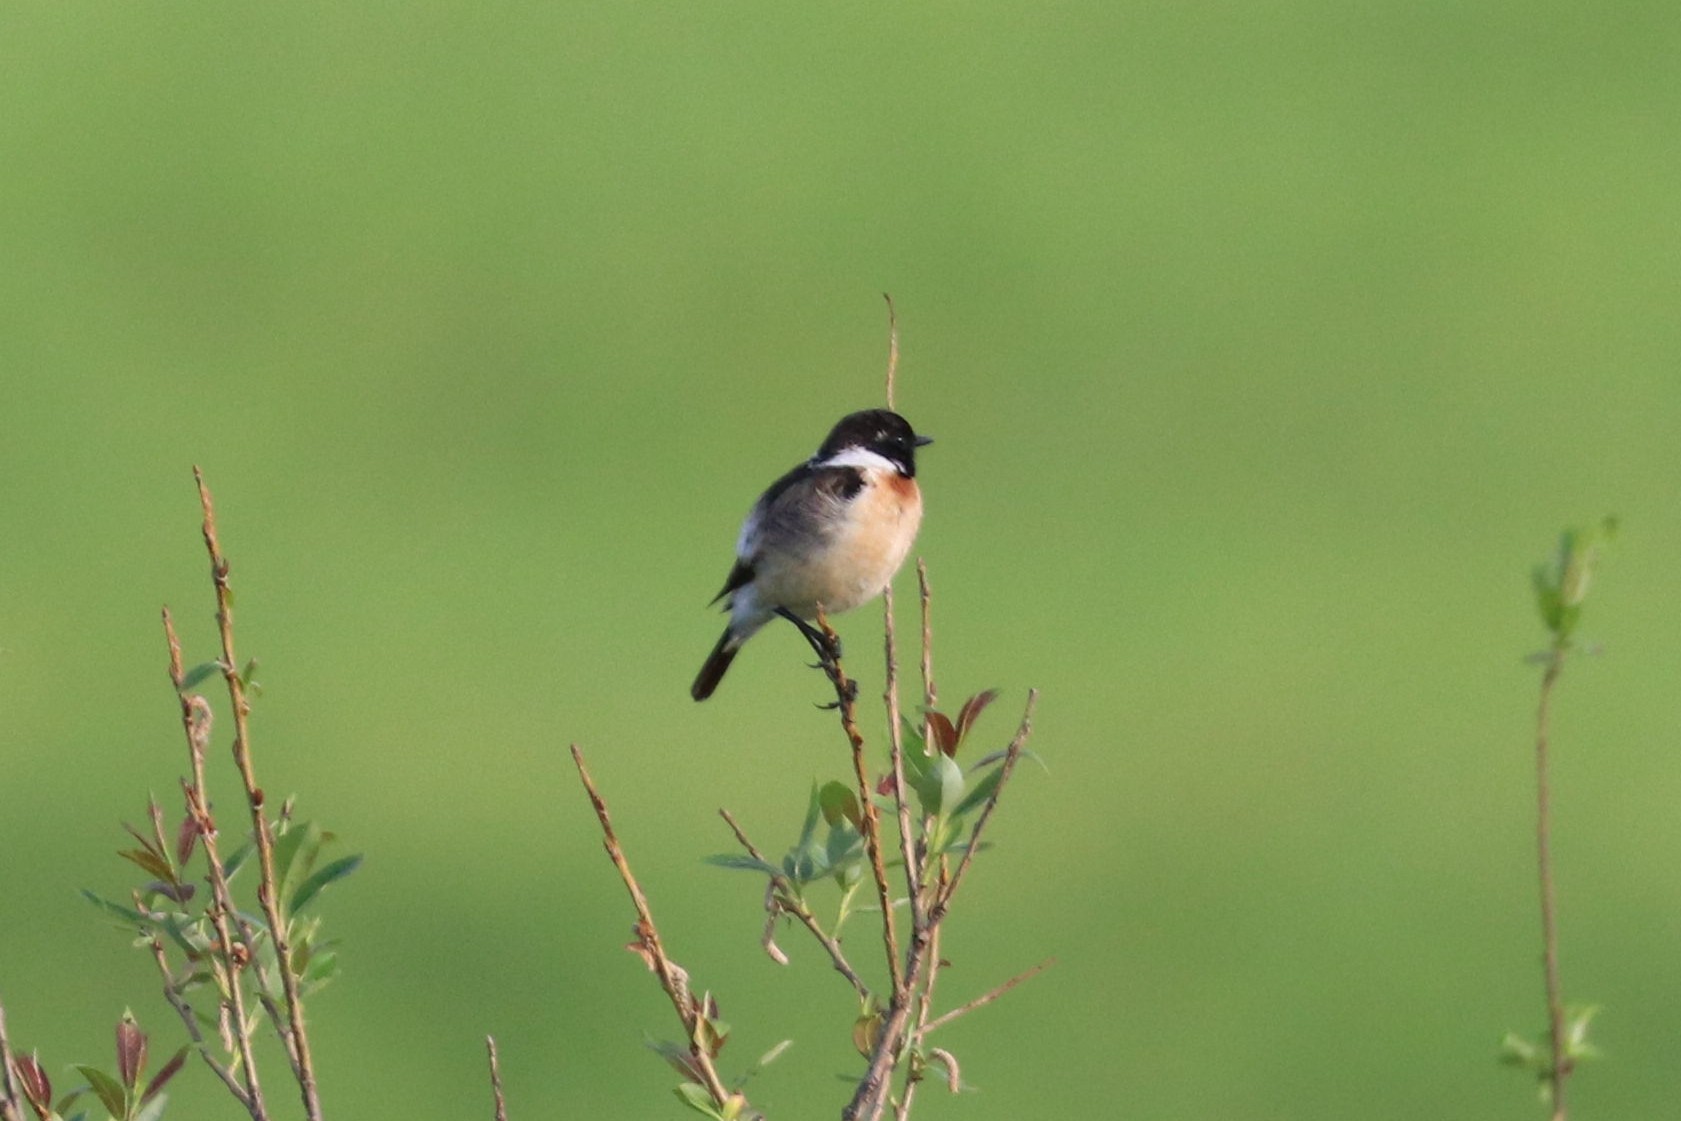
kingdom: Animalia
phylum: Chordata
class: Aves
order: Passeriformes
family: Muscicapidae
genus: Saxicola
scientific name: Saxicola maurus
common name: Siberian stonechat
